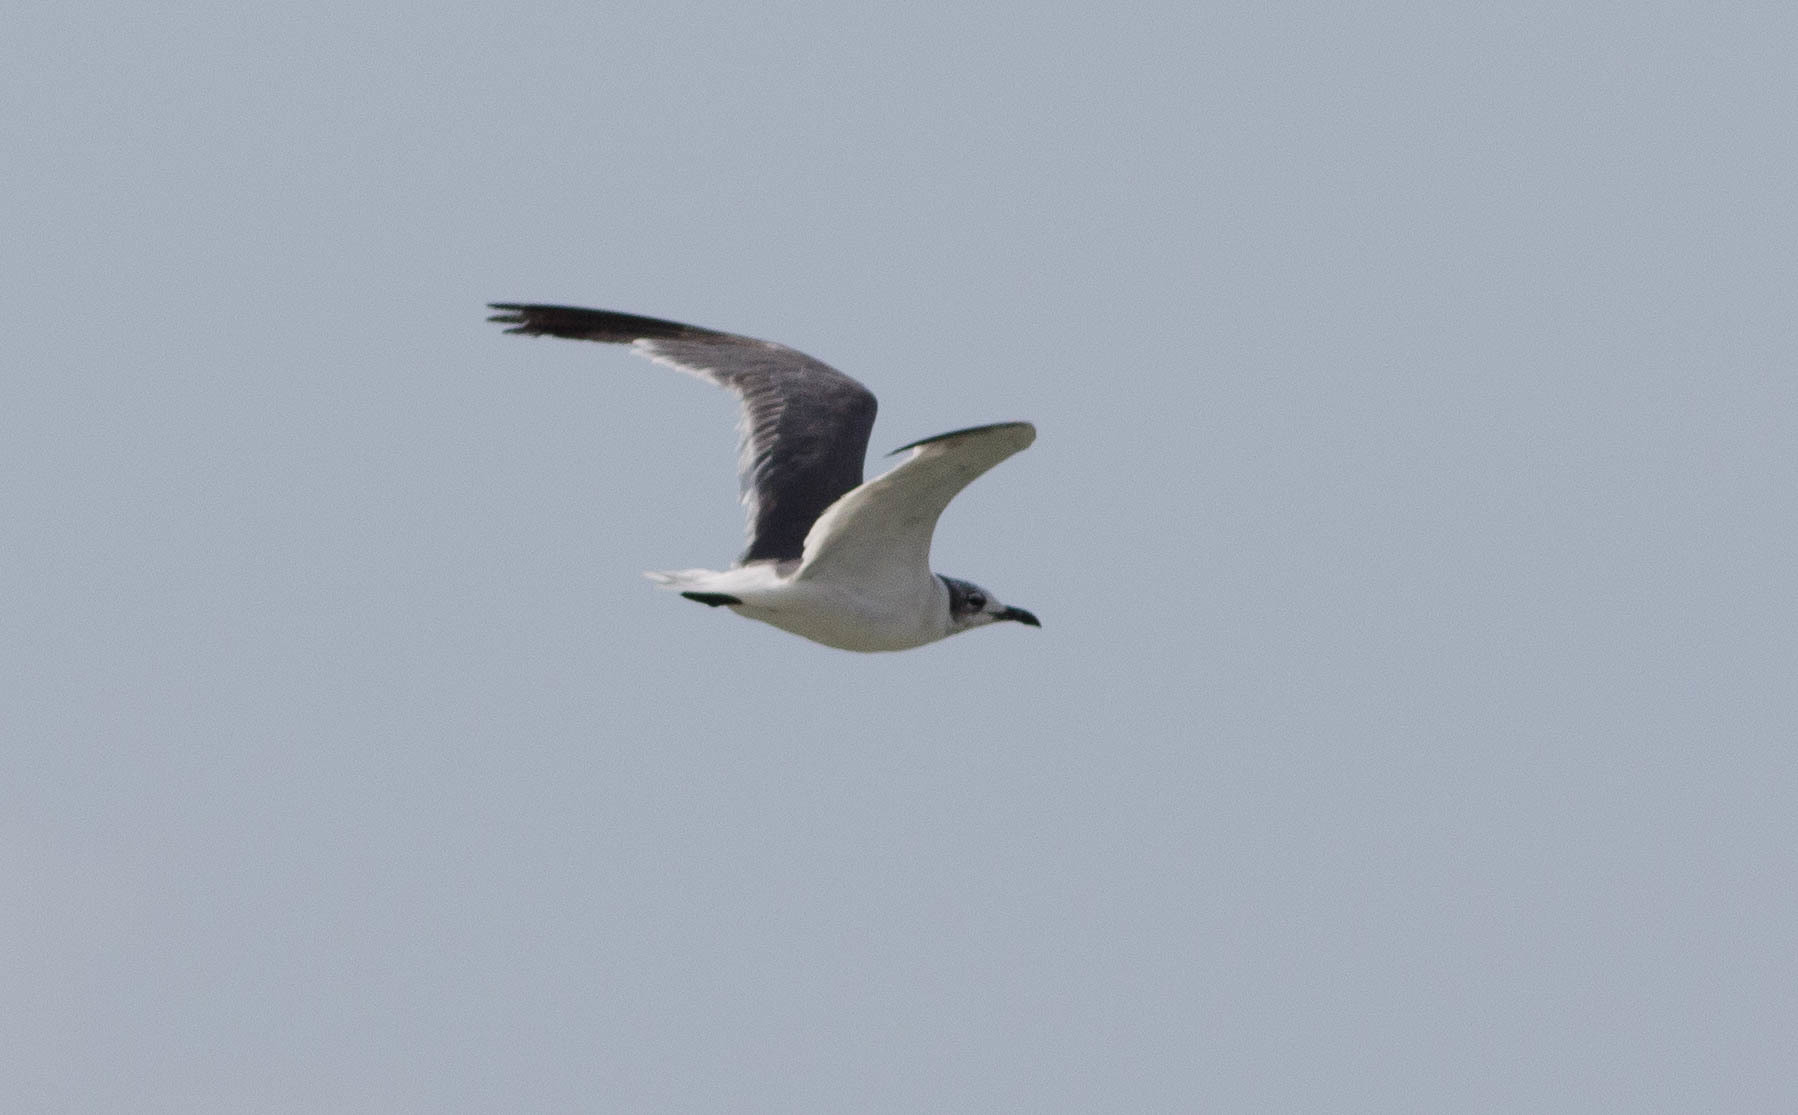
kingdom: Animalia
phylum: Chordata
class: Aves
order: Charadriiformes
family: Laridae
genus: Leucophaeus
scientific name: Leucophaeus atricilla
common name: Laughing gull
